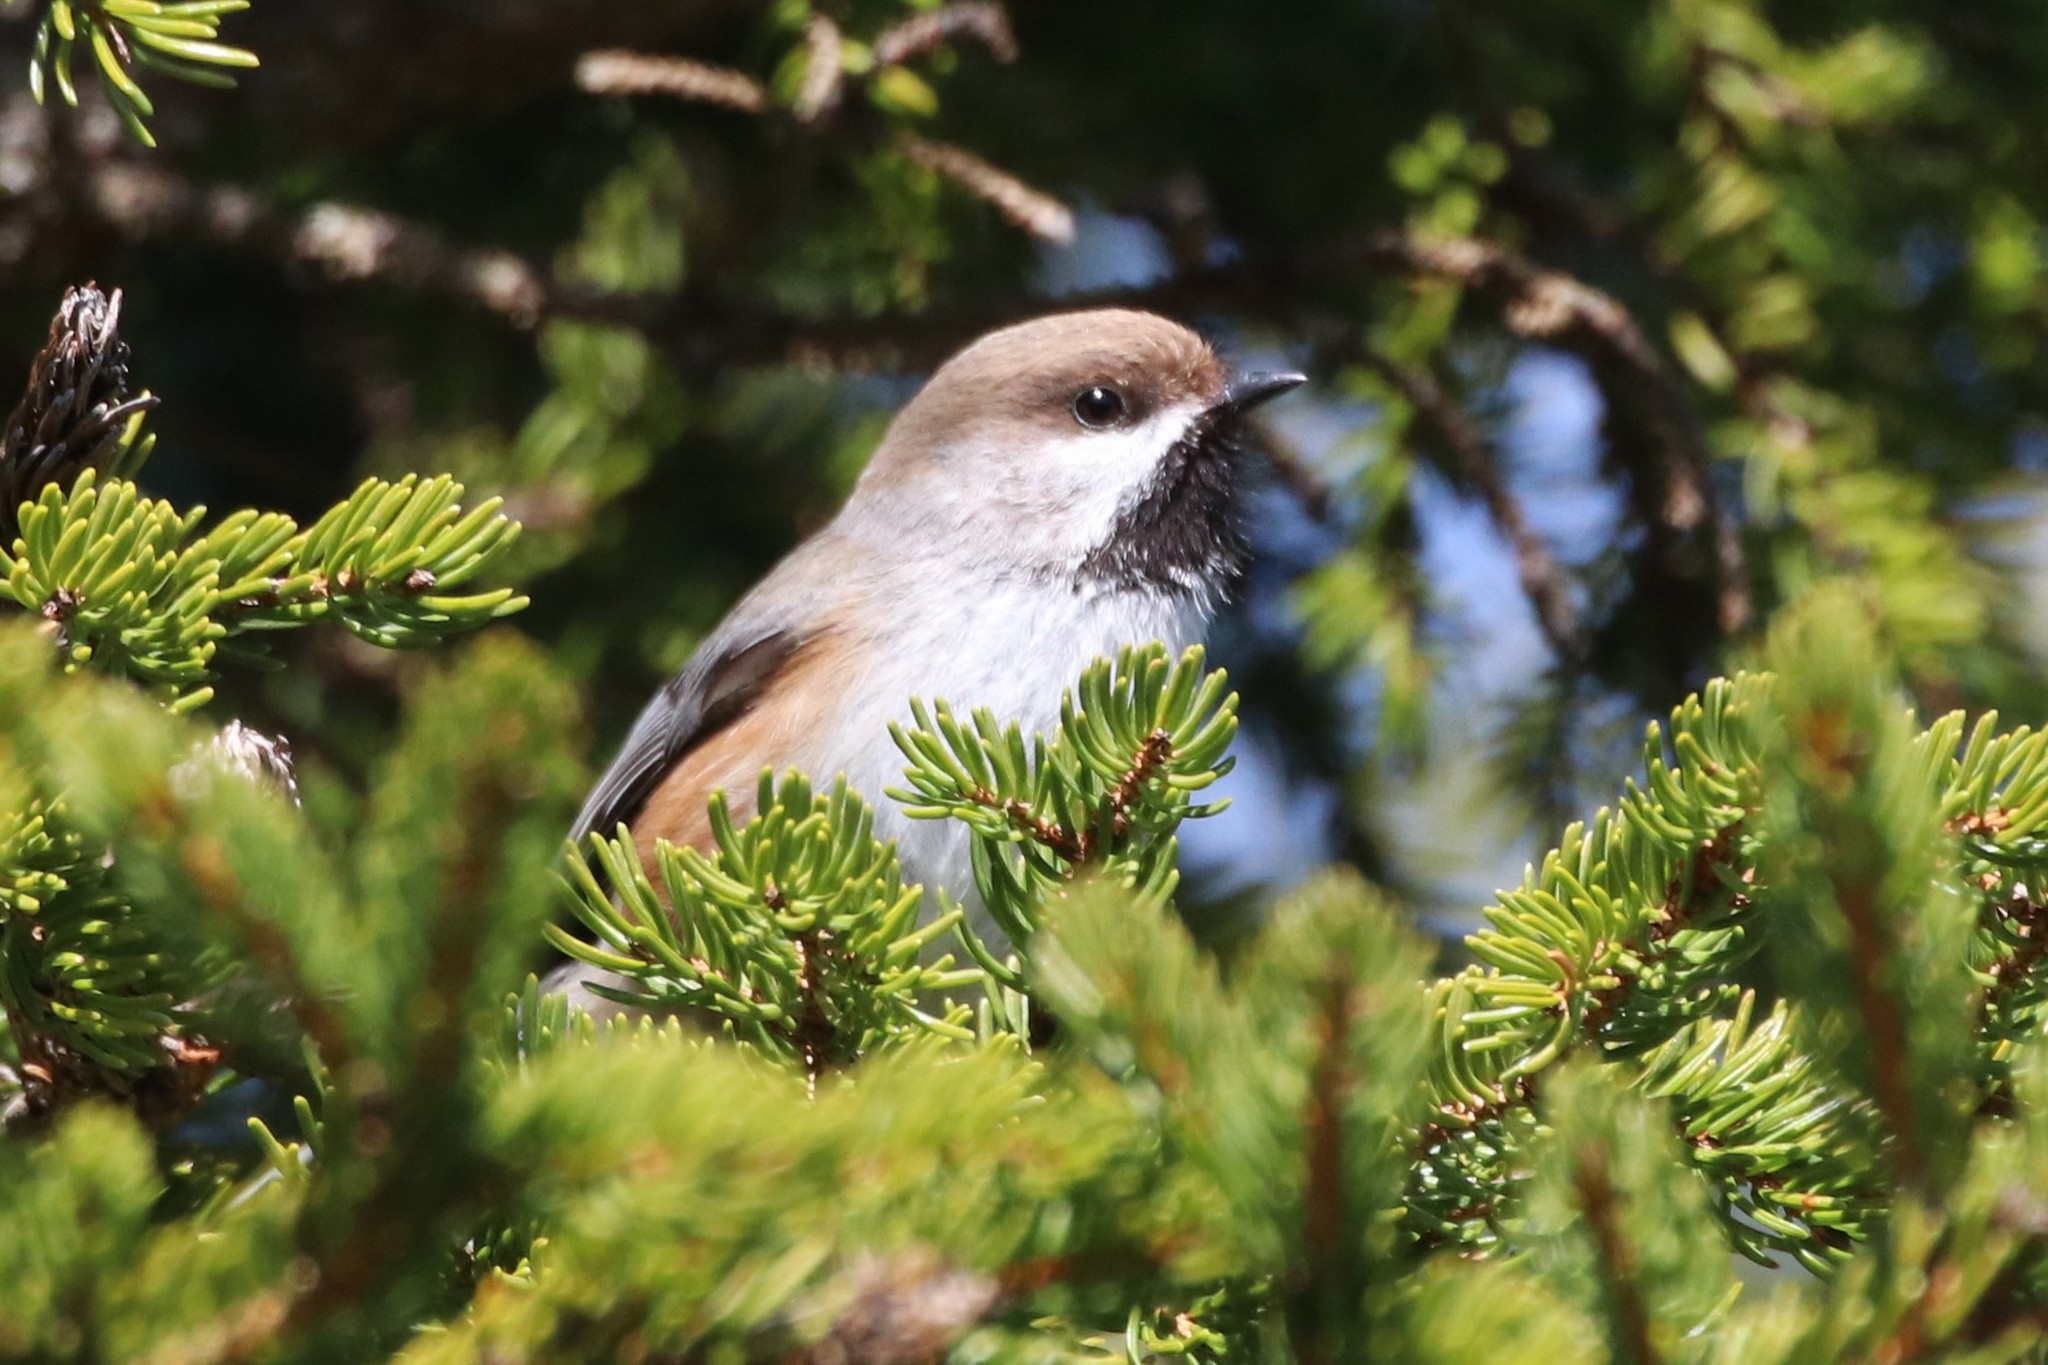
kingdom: Animalia
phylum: Chordata
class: Aves
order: Passeriformes
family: Paridae
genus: Poecile
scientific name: Poecile hudsonicus
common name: Boreal chickadee
